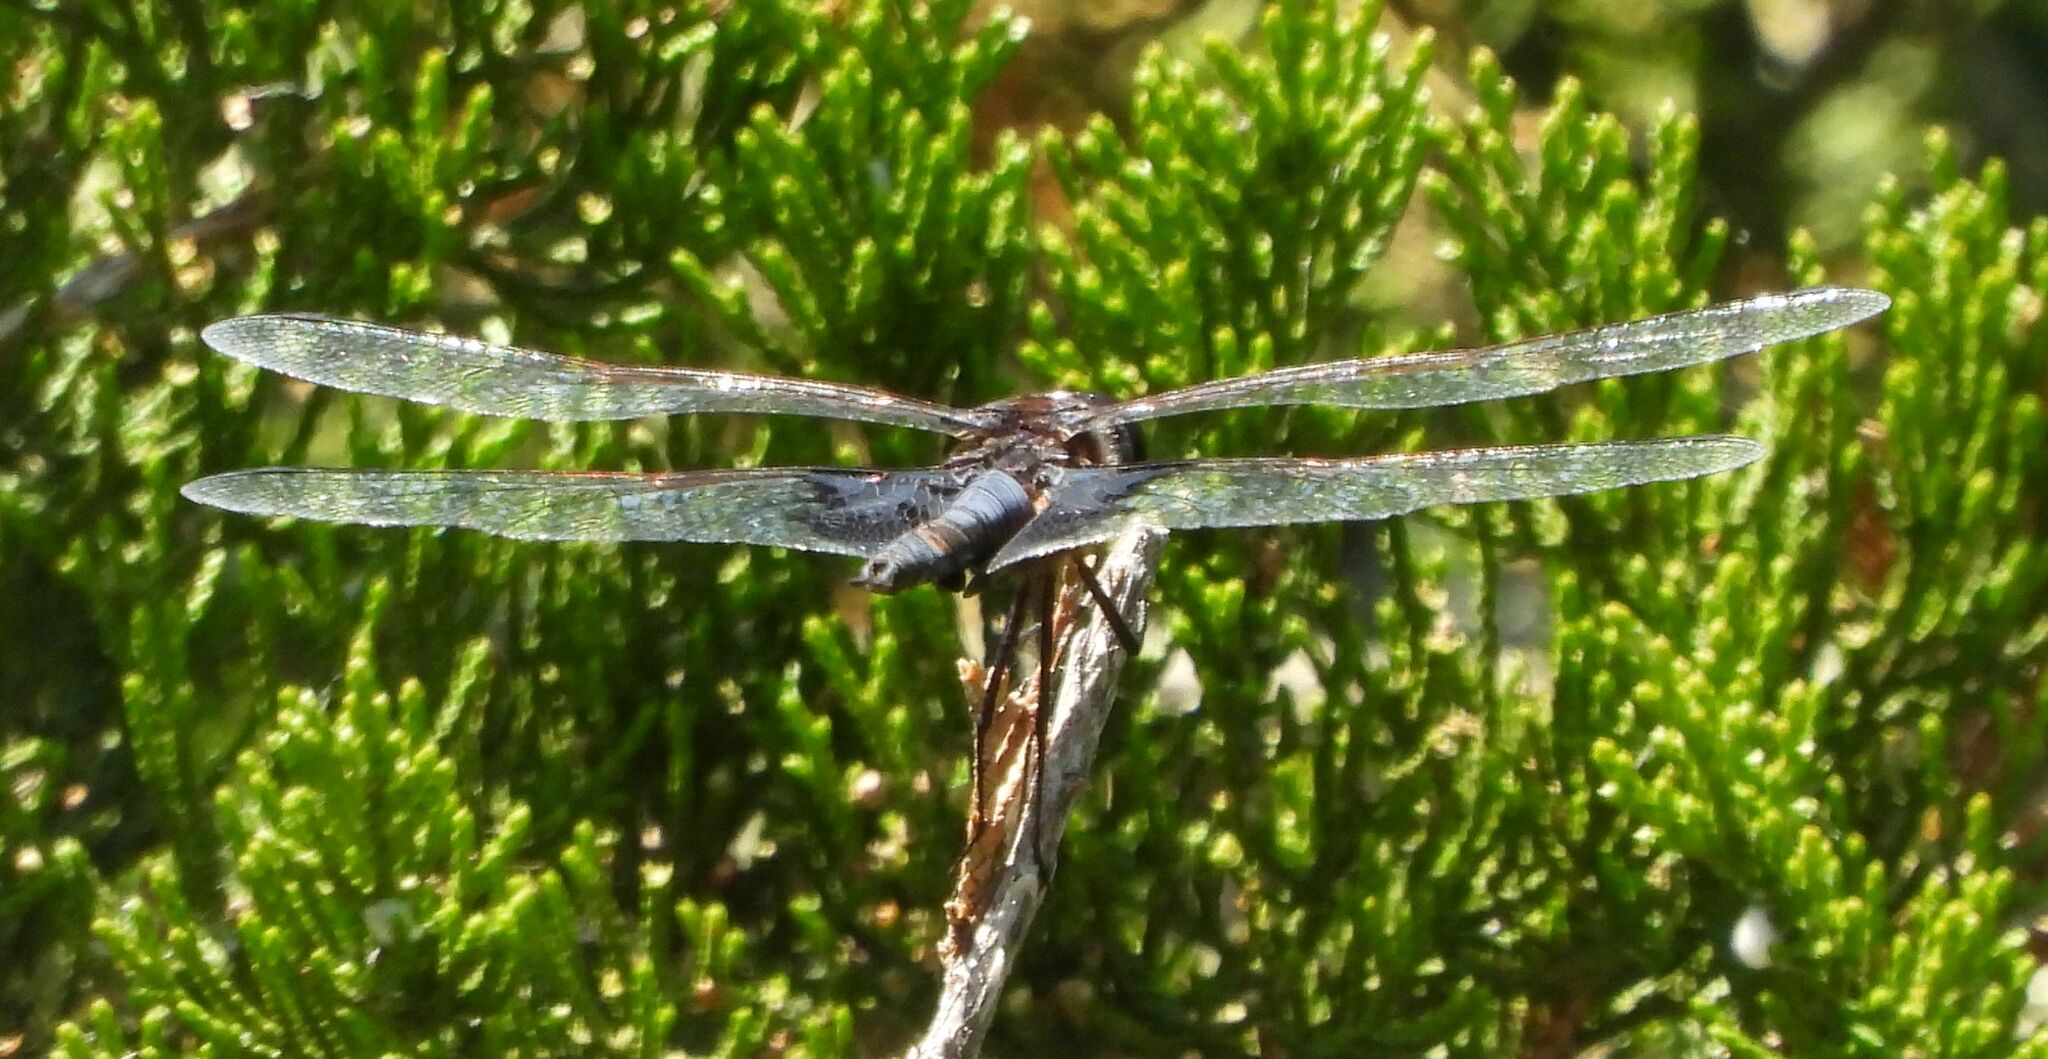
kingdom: Animalia
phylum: Arthropoda
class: Insecta
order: Odonata
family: Libellulidae
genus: Tramea
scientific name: Tramea lacerata
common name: Black saddlebags
